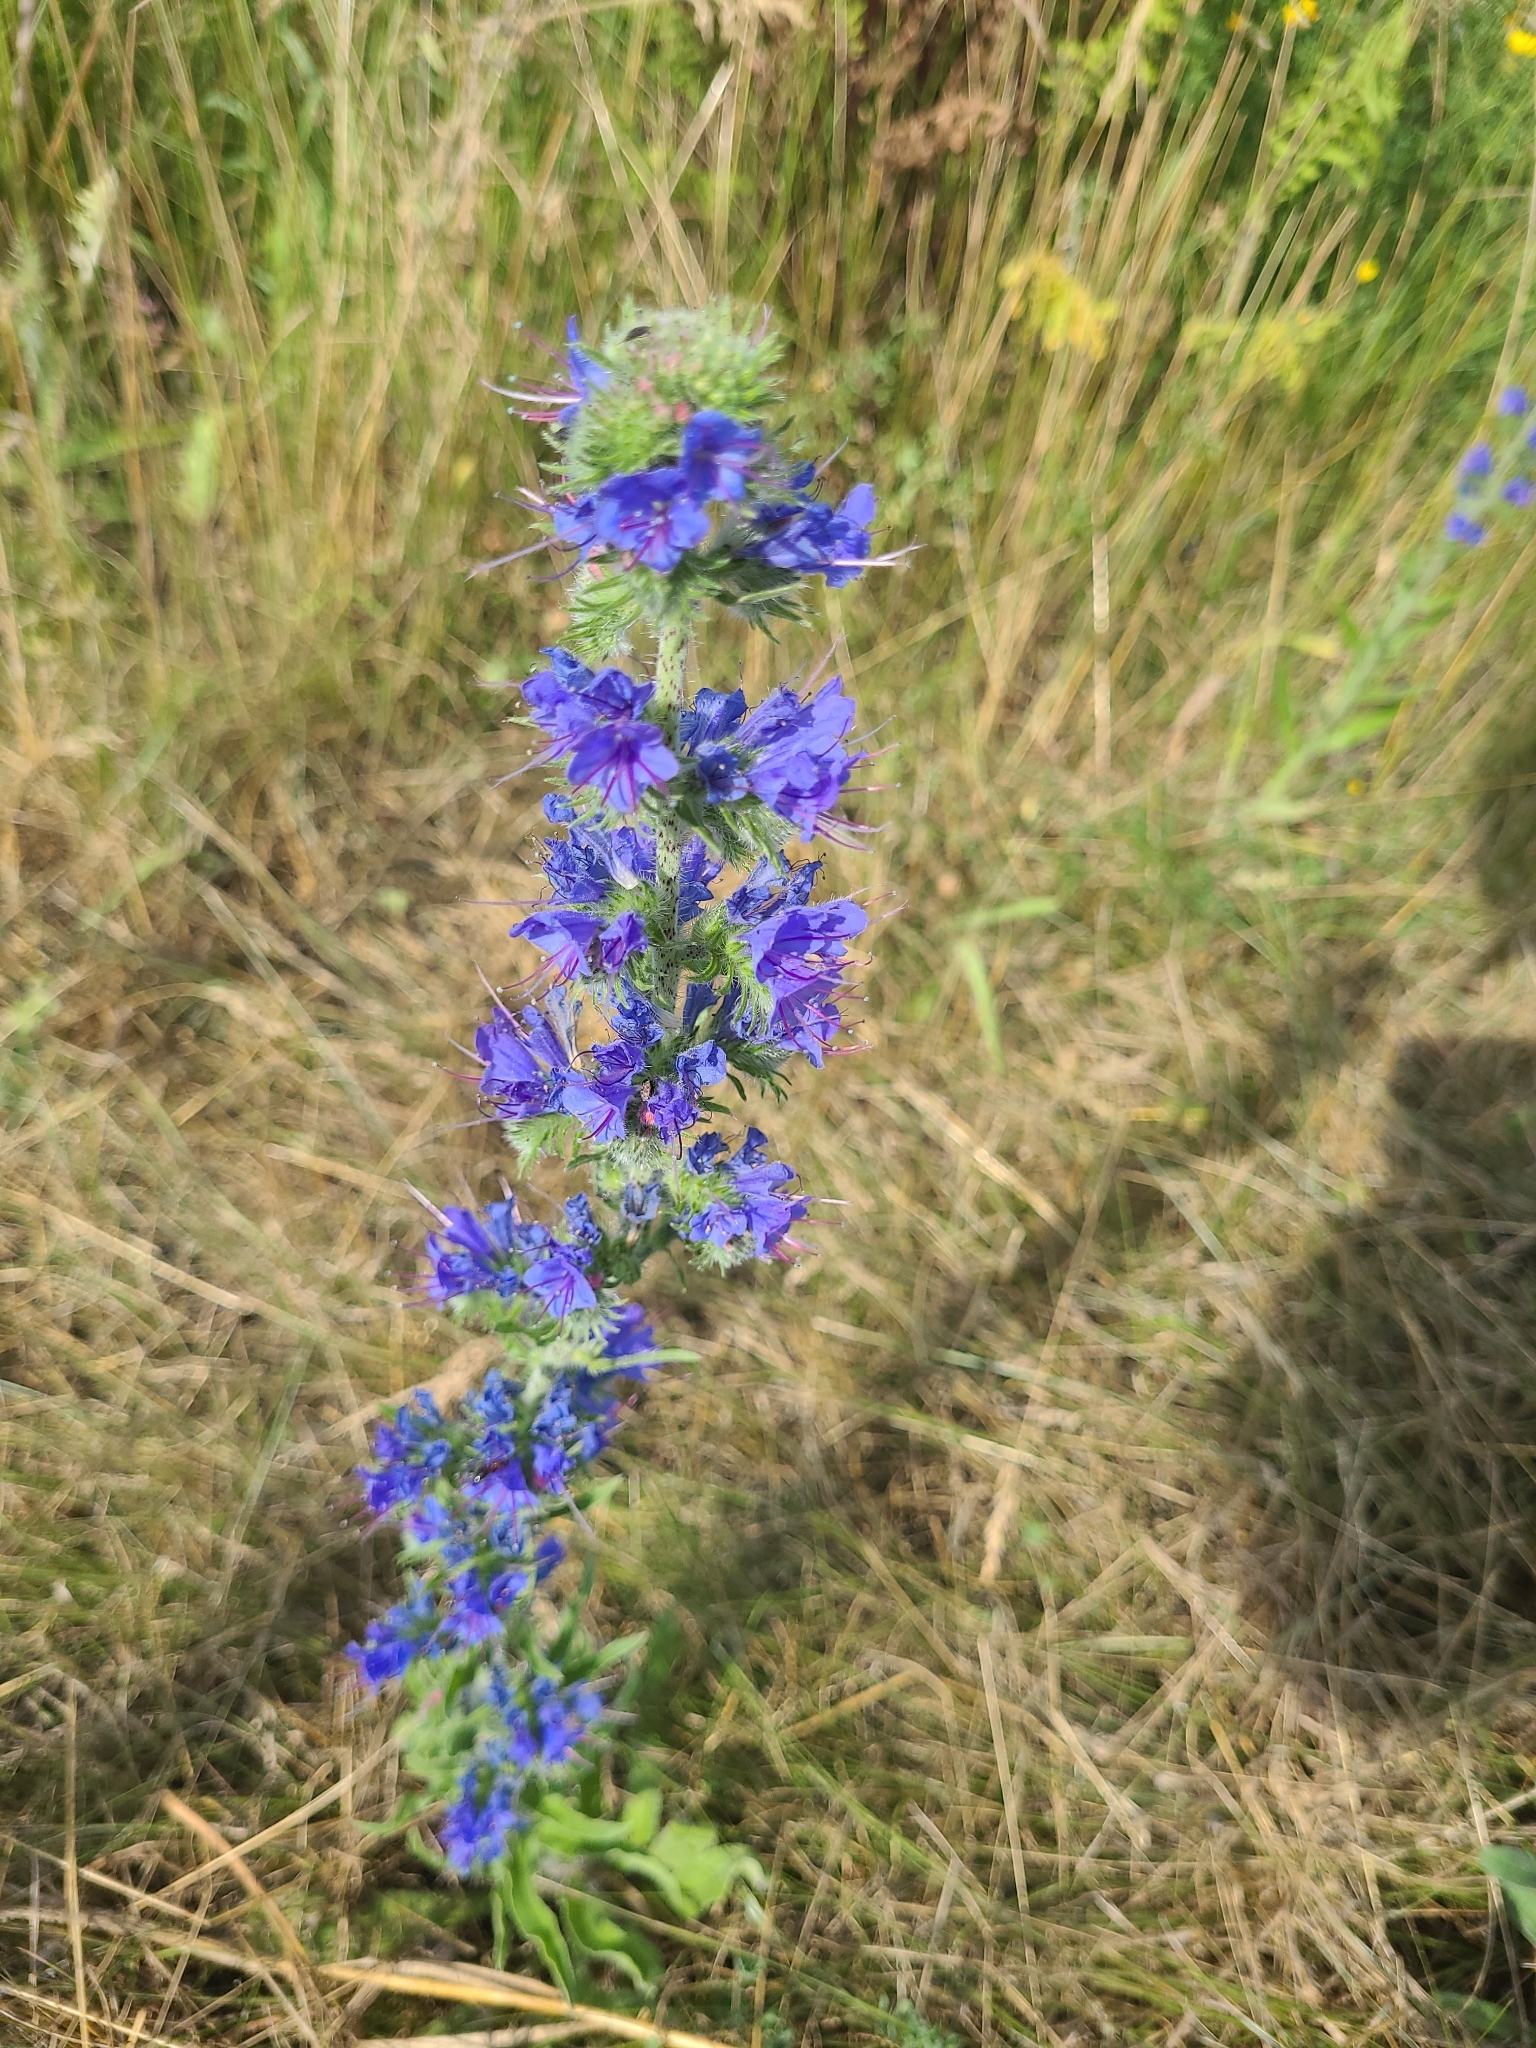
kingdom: Plantae
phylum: Tracheophyta
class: Magnoliopsida
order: Boraginales
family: Boraginaceae
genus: Echium
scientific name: Echium vulgare
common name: Common viper's bugloss
